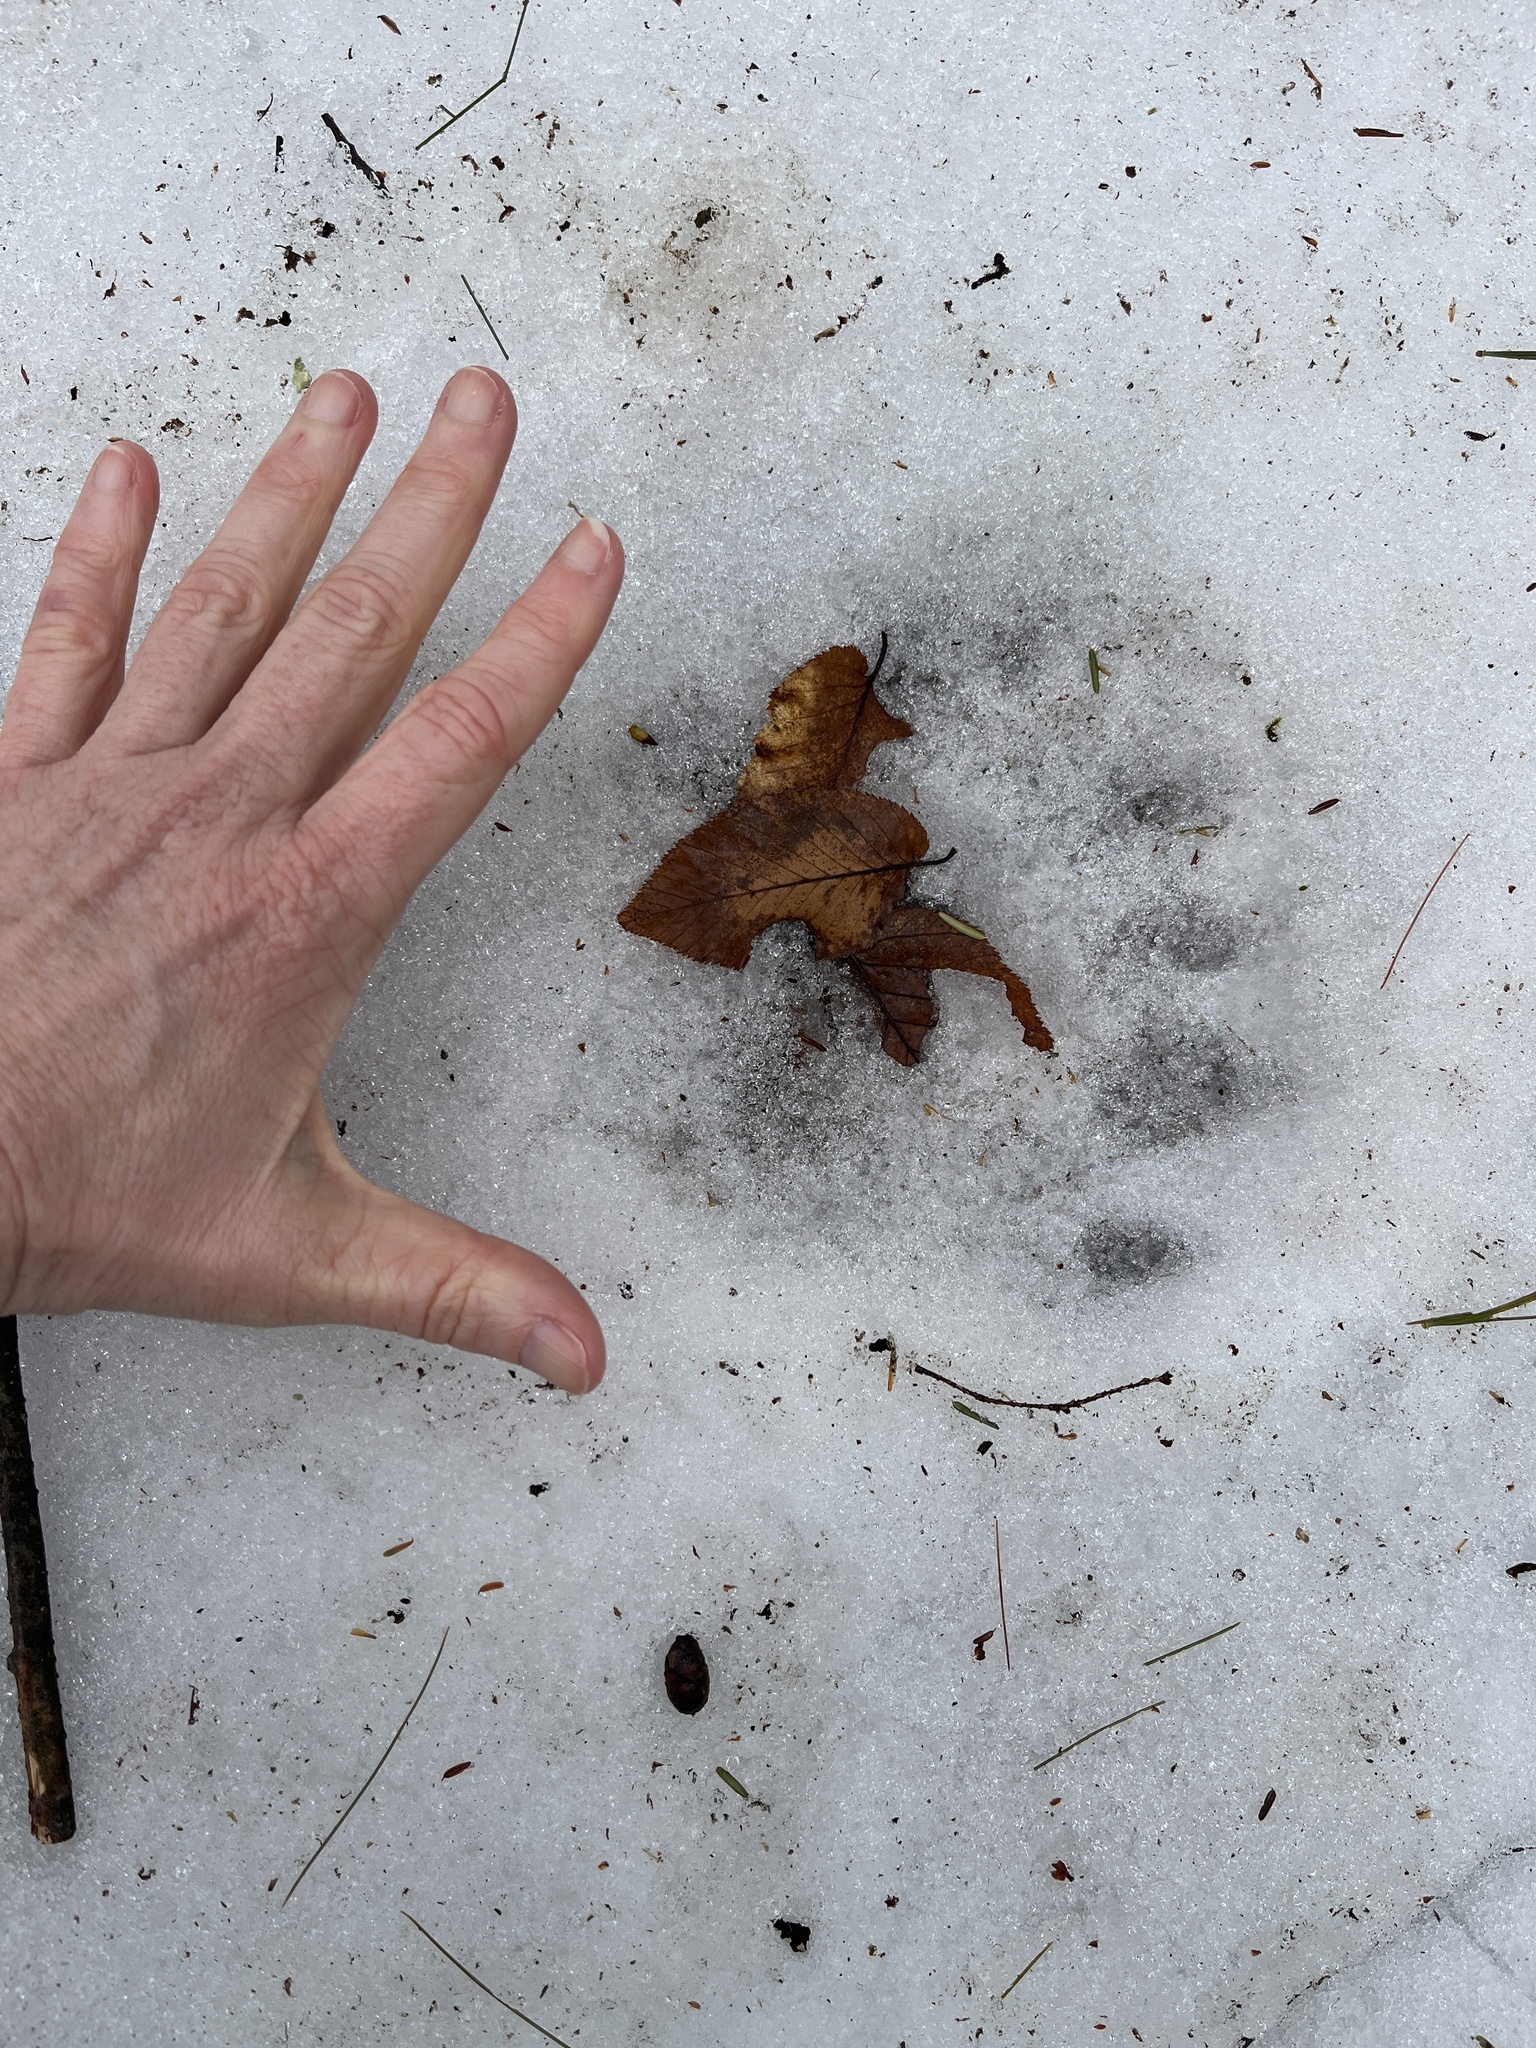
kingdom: Animalia
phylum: Chordata
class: Mammalia
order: Carnivora
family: Ursidae
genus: Ursus
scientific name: Ursus americanus
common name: American black bear
